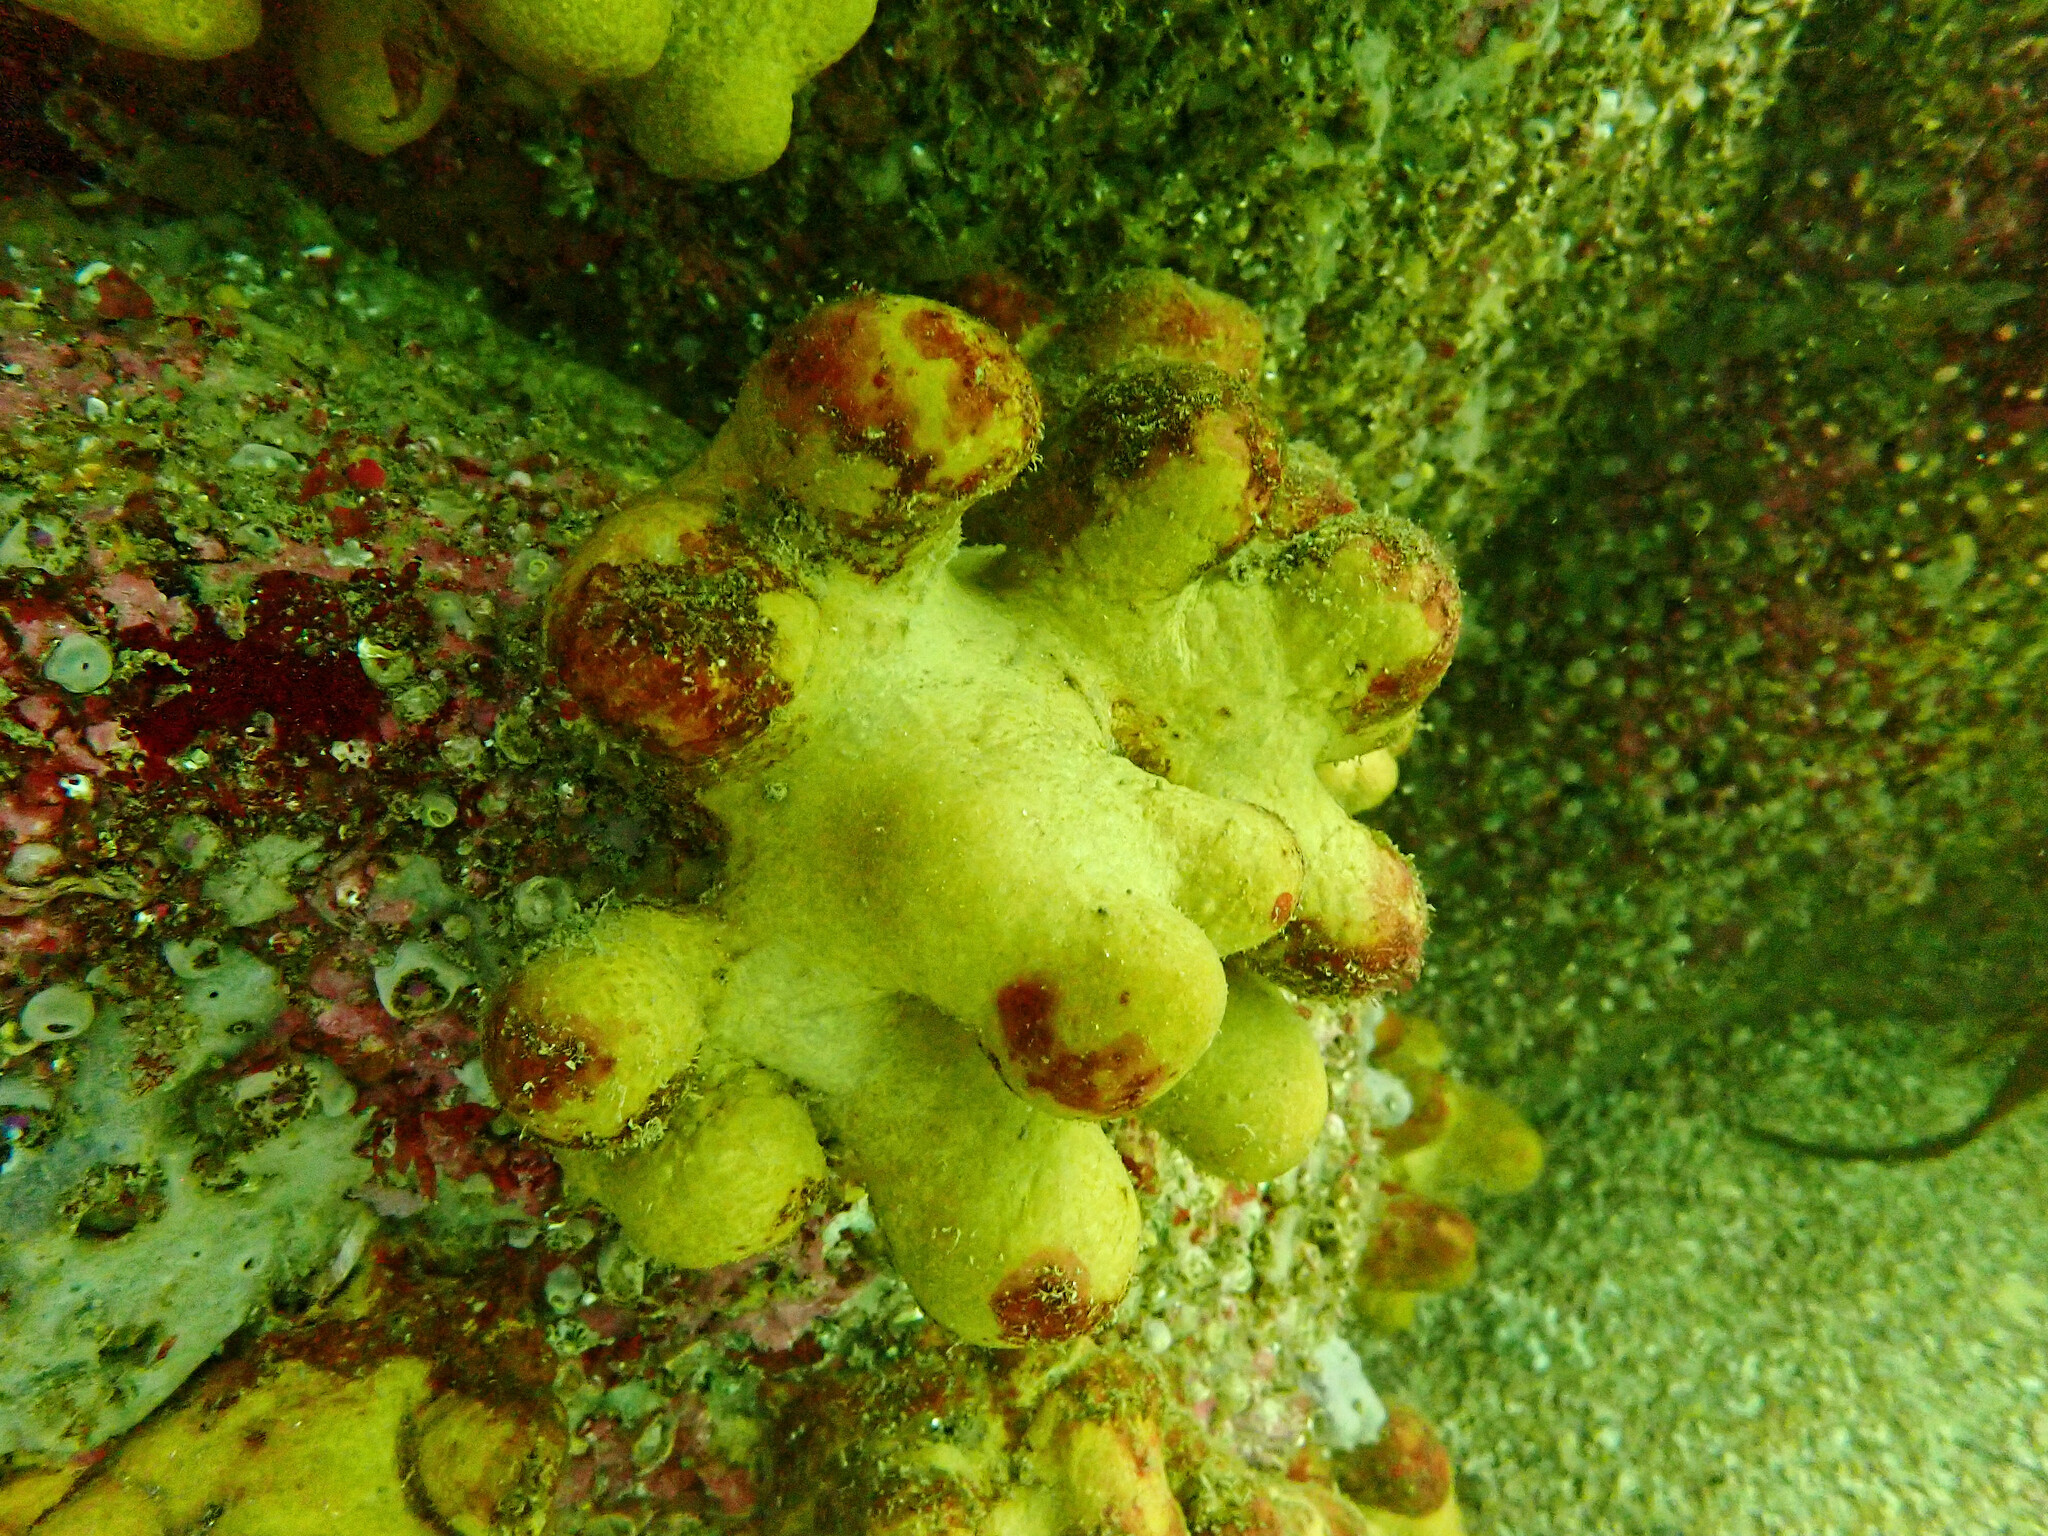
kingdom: Animalia
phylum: Cnidaria
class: Anthozoa
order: Malacalcyonacea
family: Alcyoniidae
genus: Alcyonium
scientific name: Alcyonium digitatum
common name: Dead man's fingers
